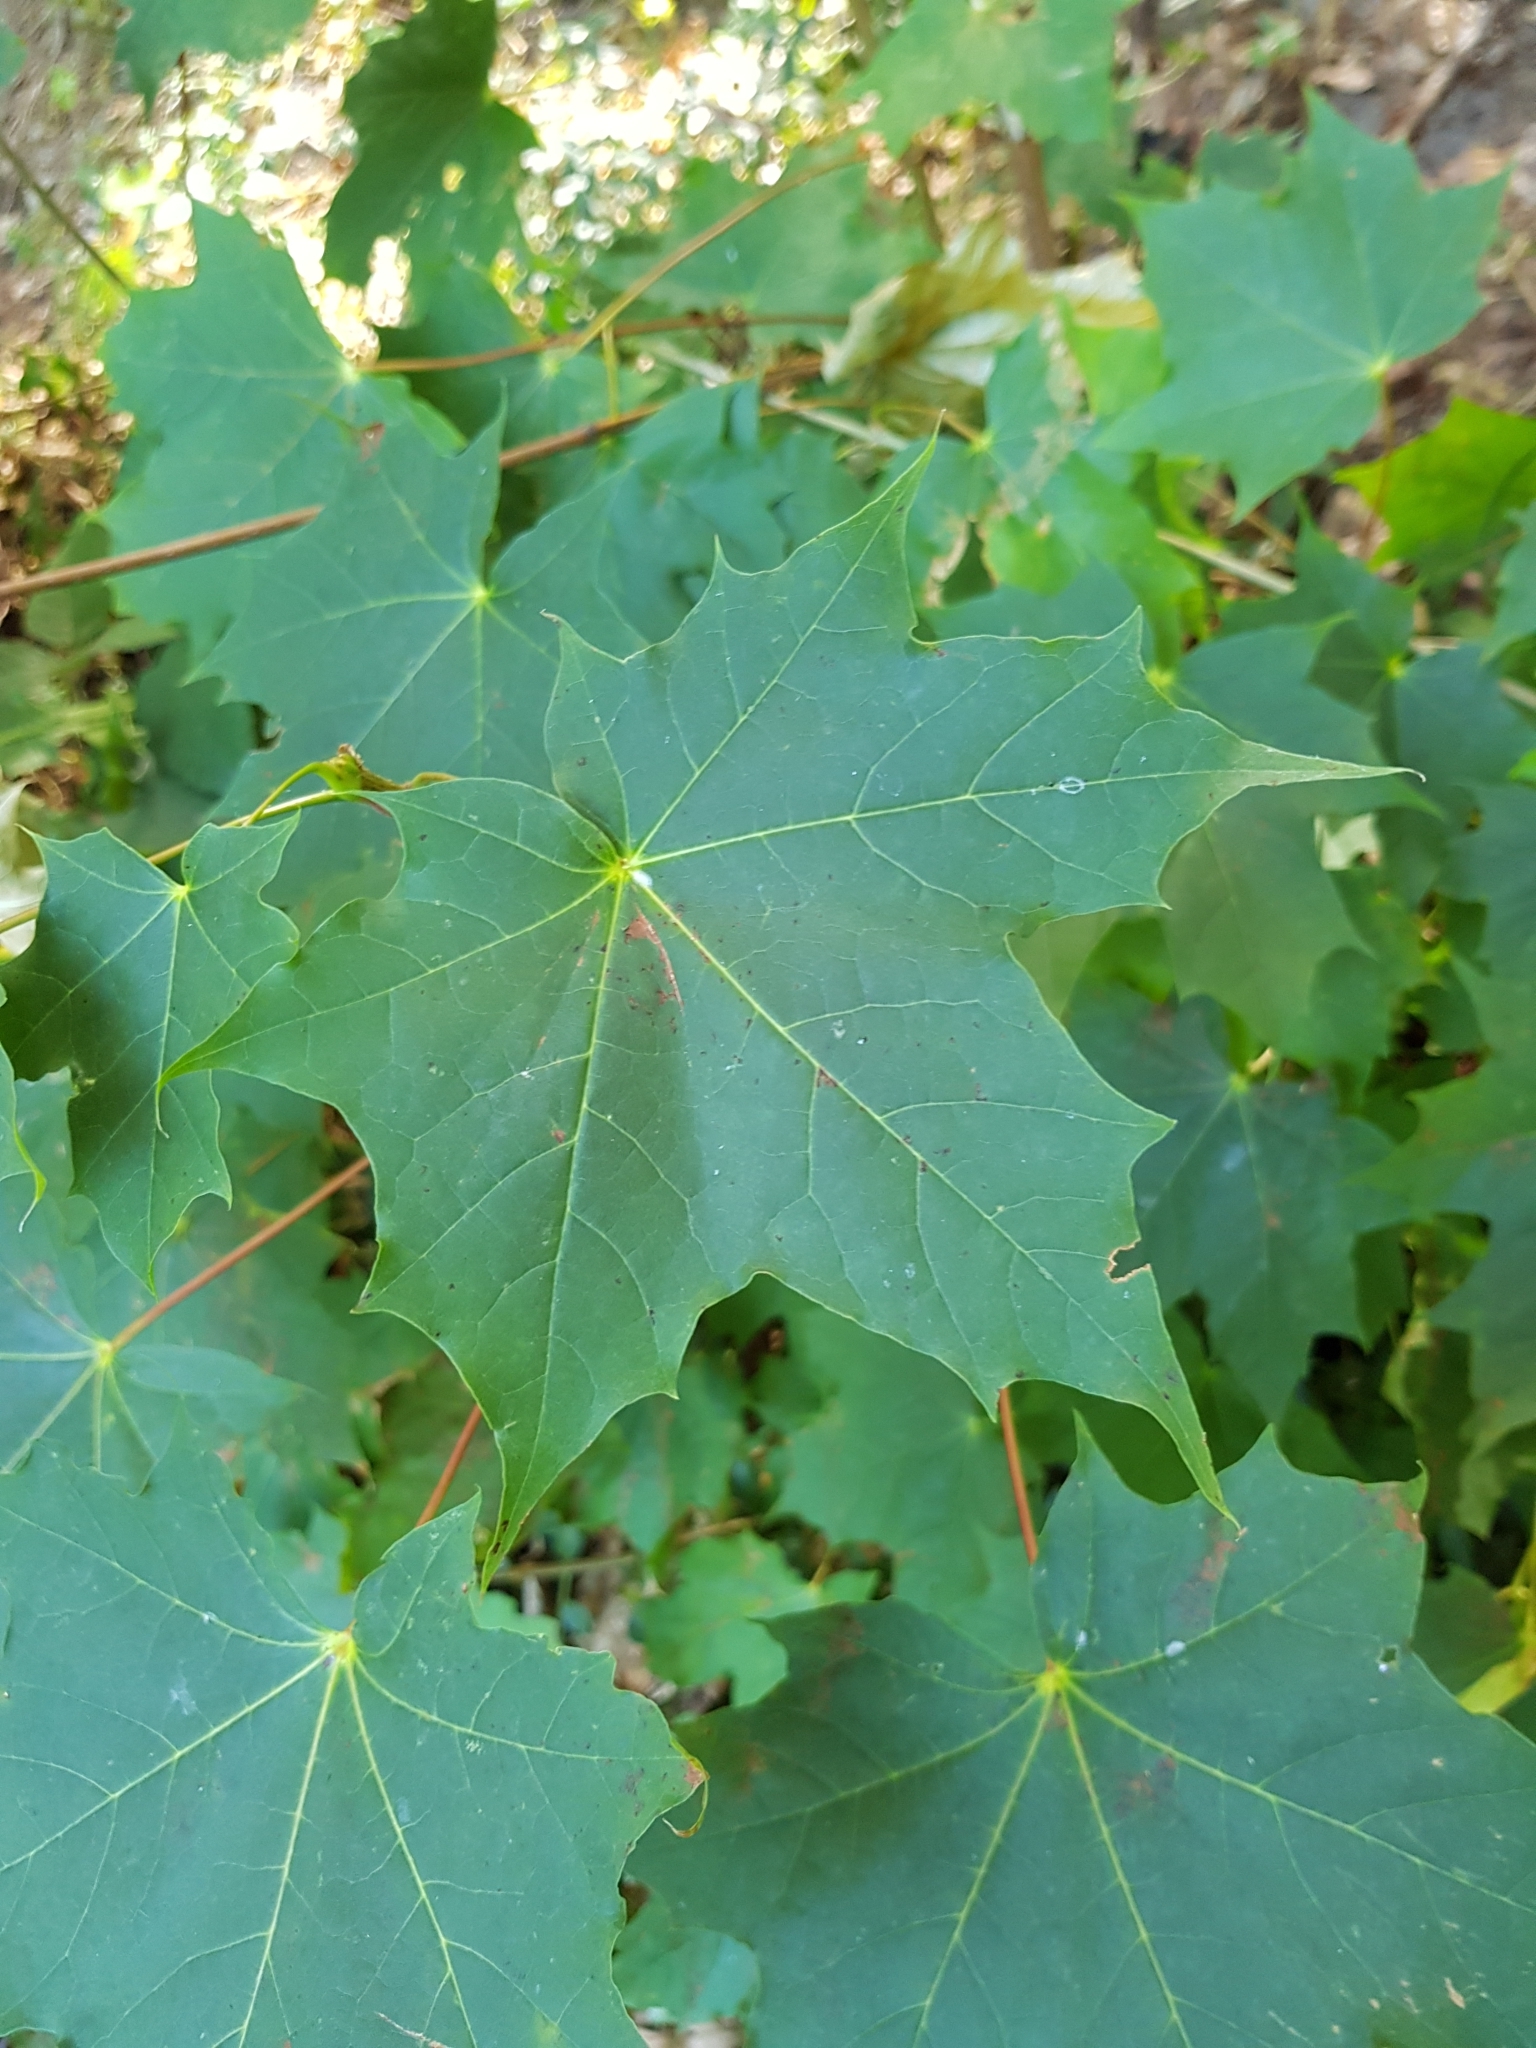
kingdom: Plantae
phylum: Tracheophyta
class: Magnoliopsida
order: Sapindales
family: Sapindaceae
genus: Acer
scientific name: Acer platanoides
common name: Norway maple
